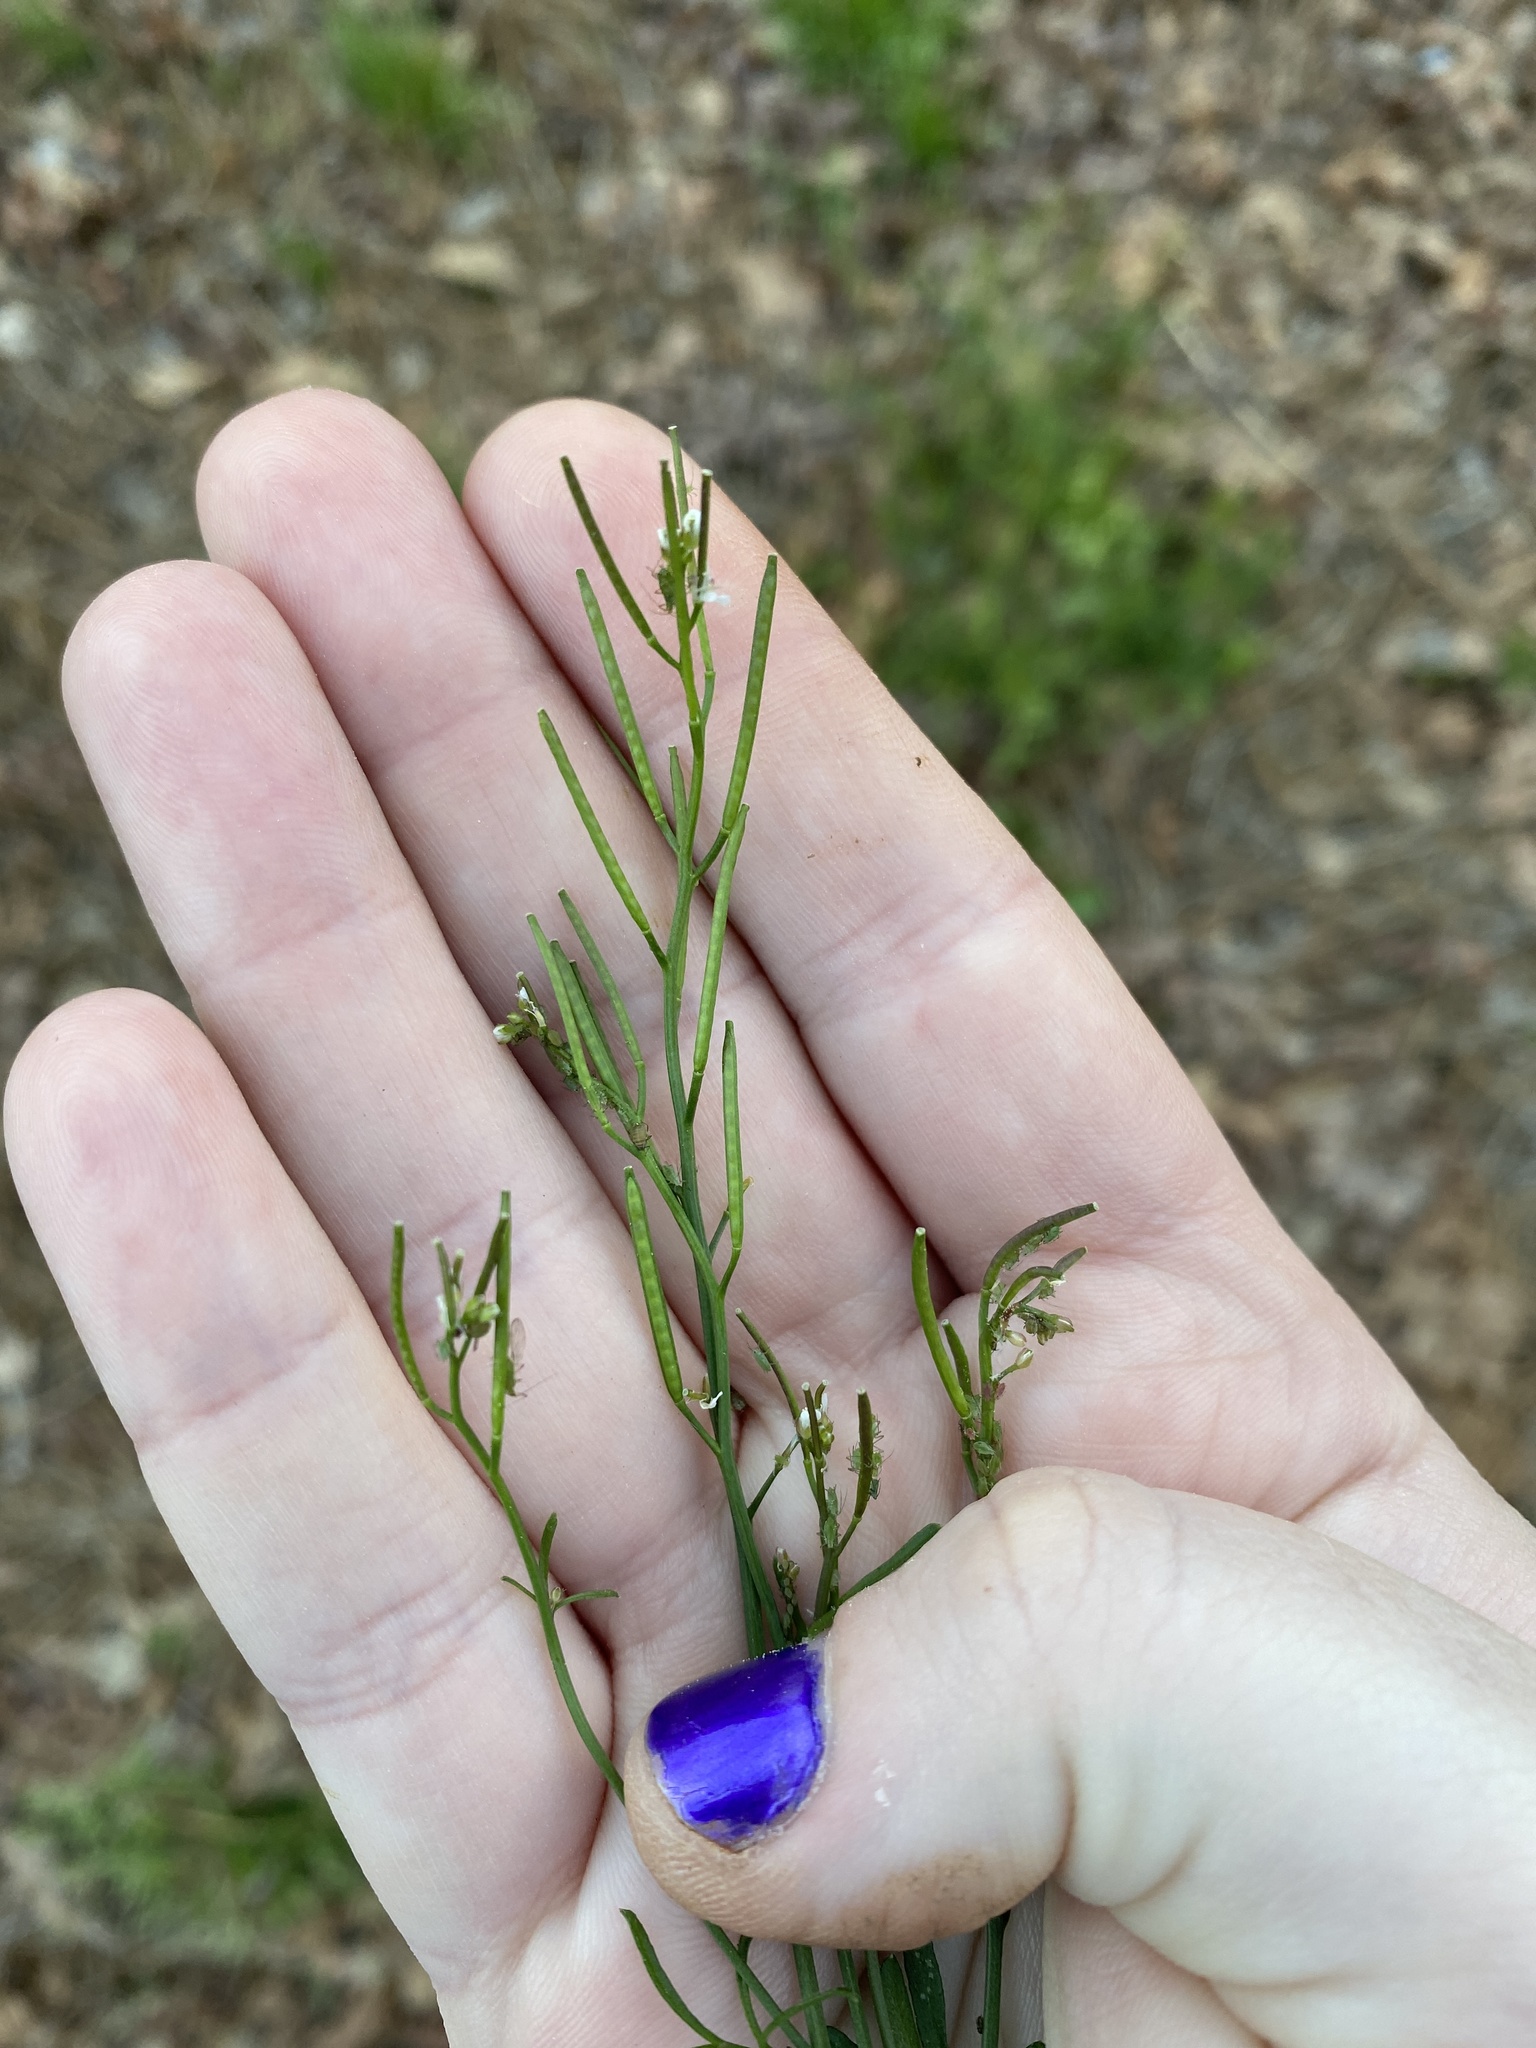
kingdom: Plantae
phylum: Tracheophyta
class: Magnoliopsida
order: Brassicales
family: Brassicaceae
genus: Cardamine
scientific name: Cardamine hirsuta
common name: Hairy bittercress
